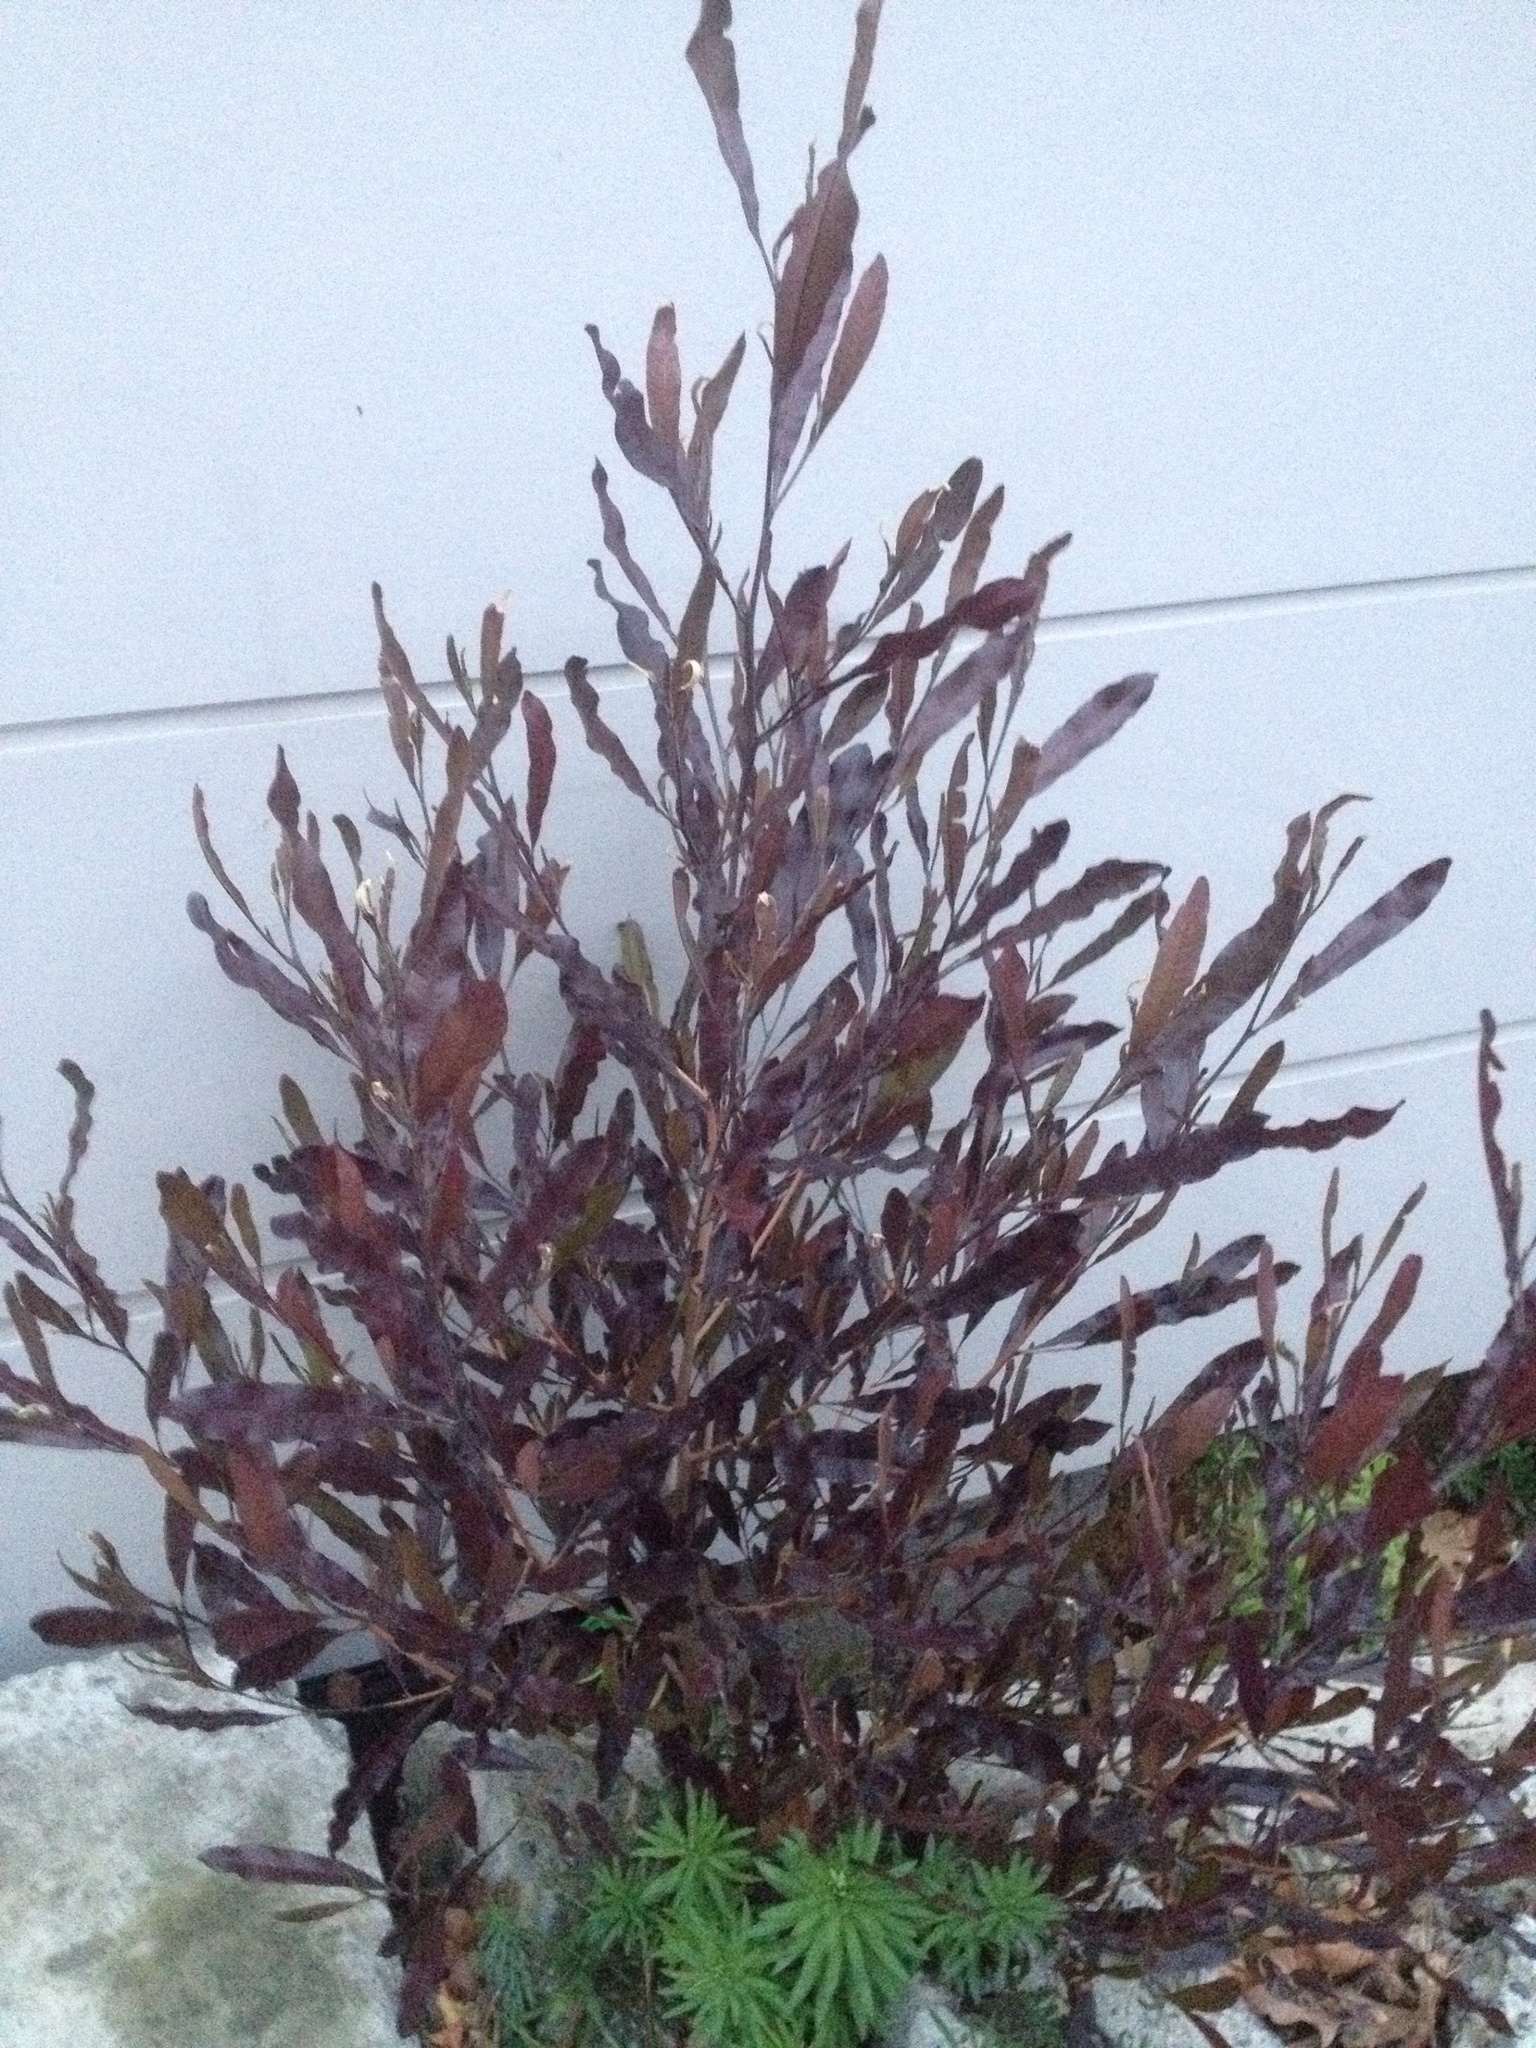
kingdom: Plantae
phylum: Tracheophyta
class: Magnoliopsida
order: Sapindales
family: Sapindaceae
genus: Dodonaea
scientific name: Dodonaea viscosa
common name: Hopbush
